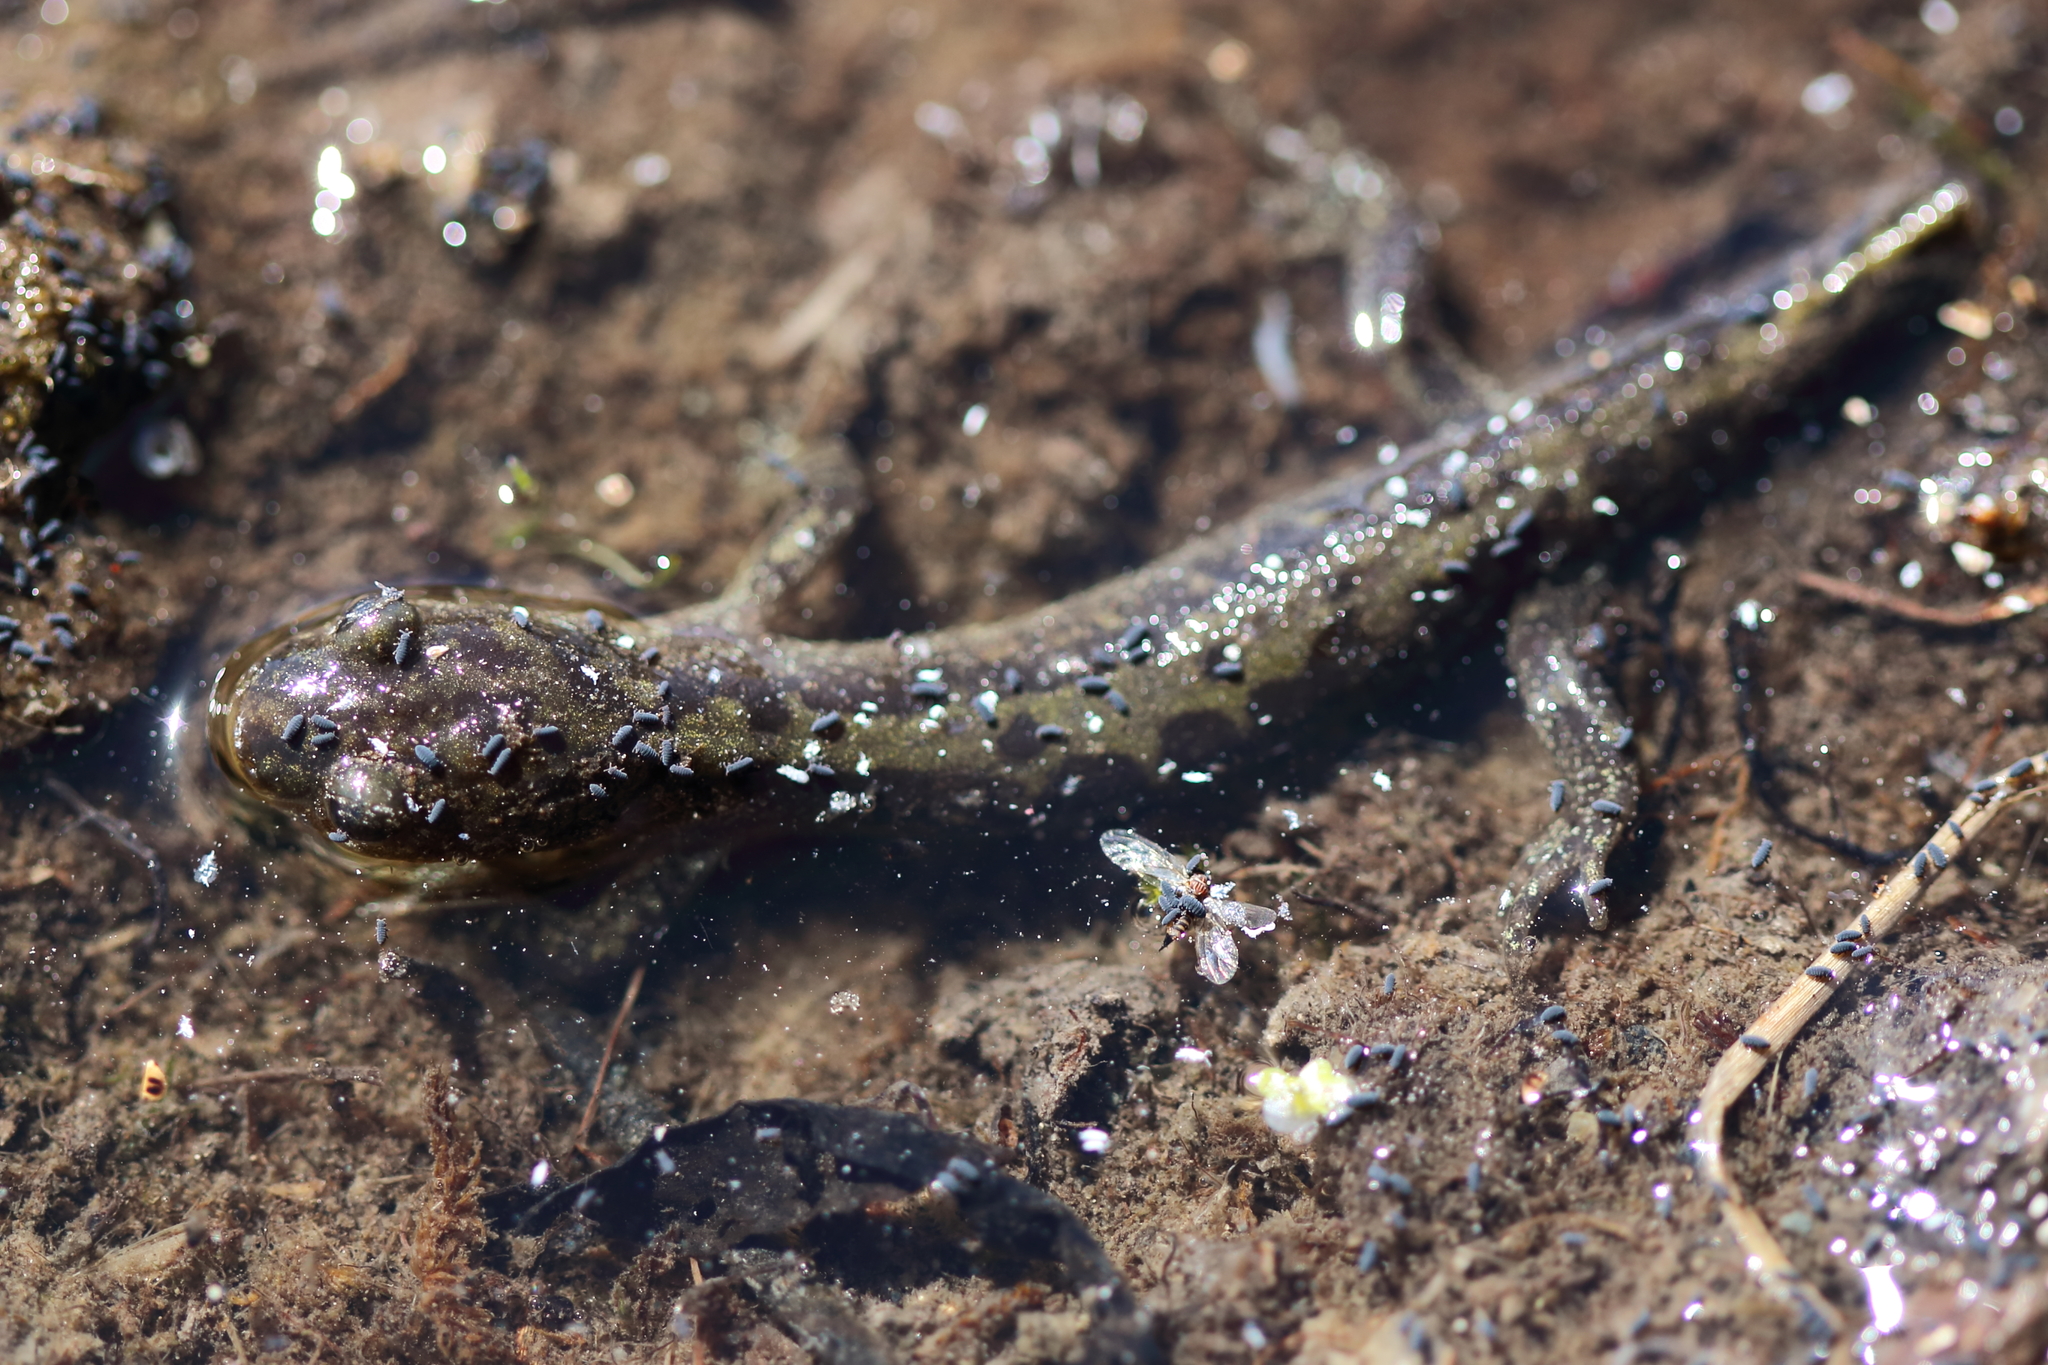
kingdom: Animalia
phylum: Chordata
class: Amphibia
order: Caudata
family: Ambystomatidae
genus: Ambystoma
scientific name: Ambystoma macrodactylum
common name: Long-toed salamander
